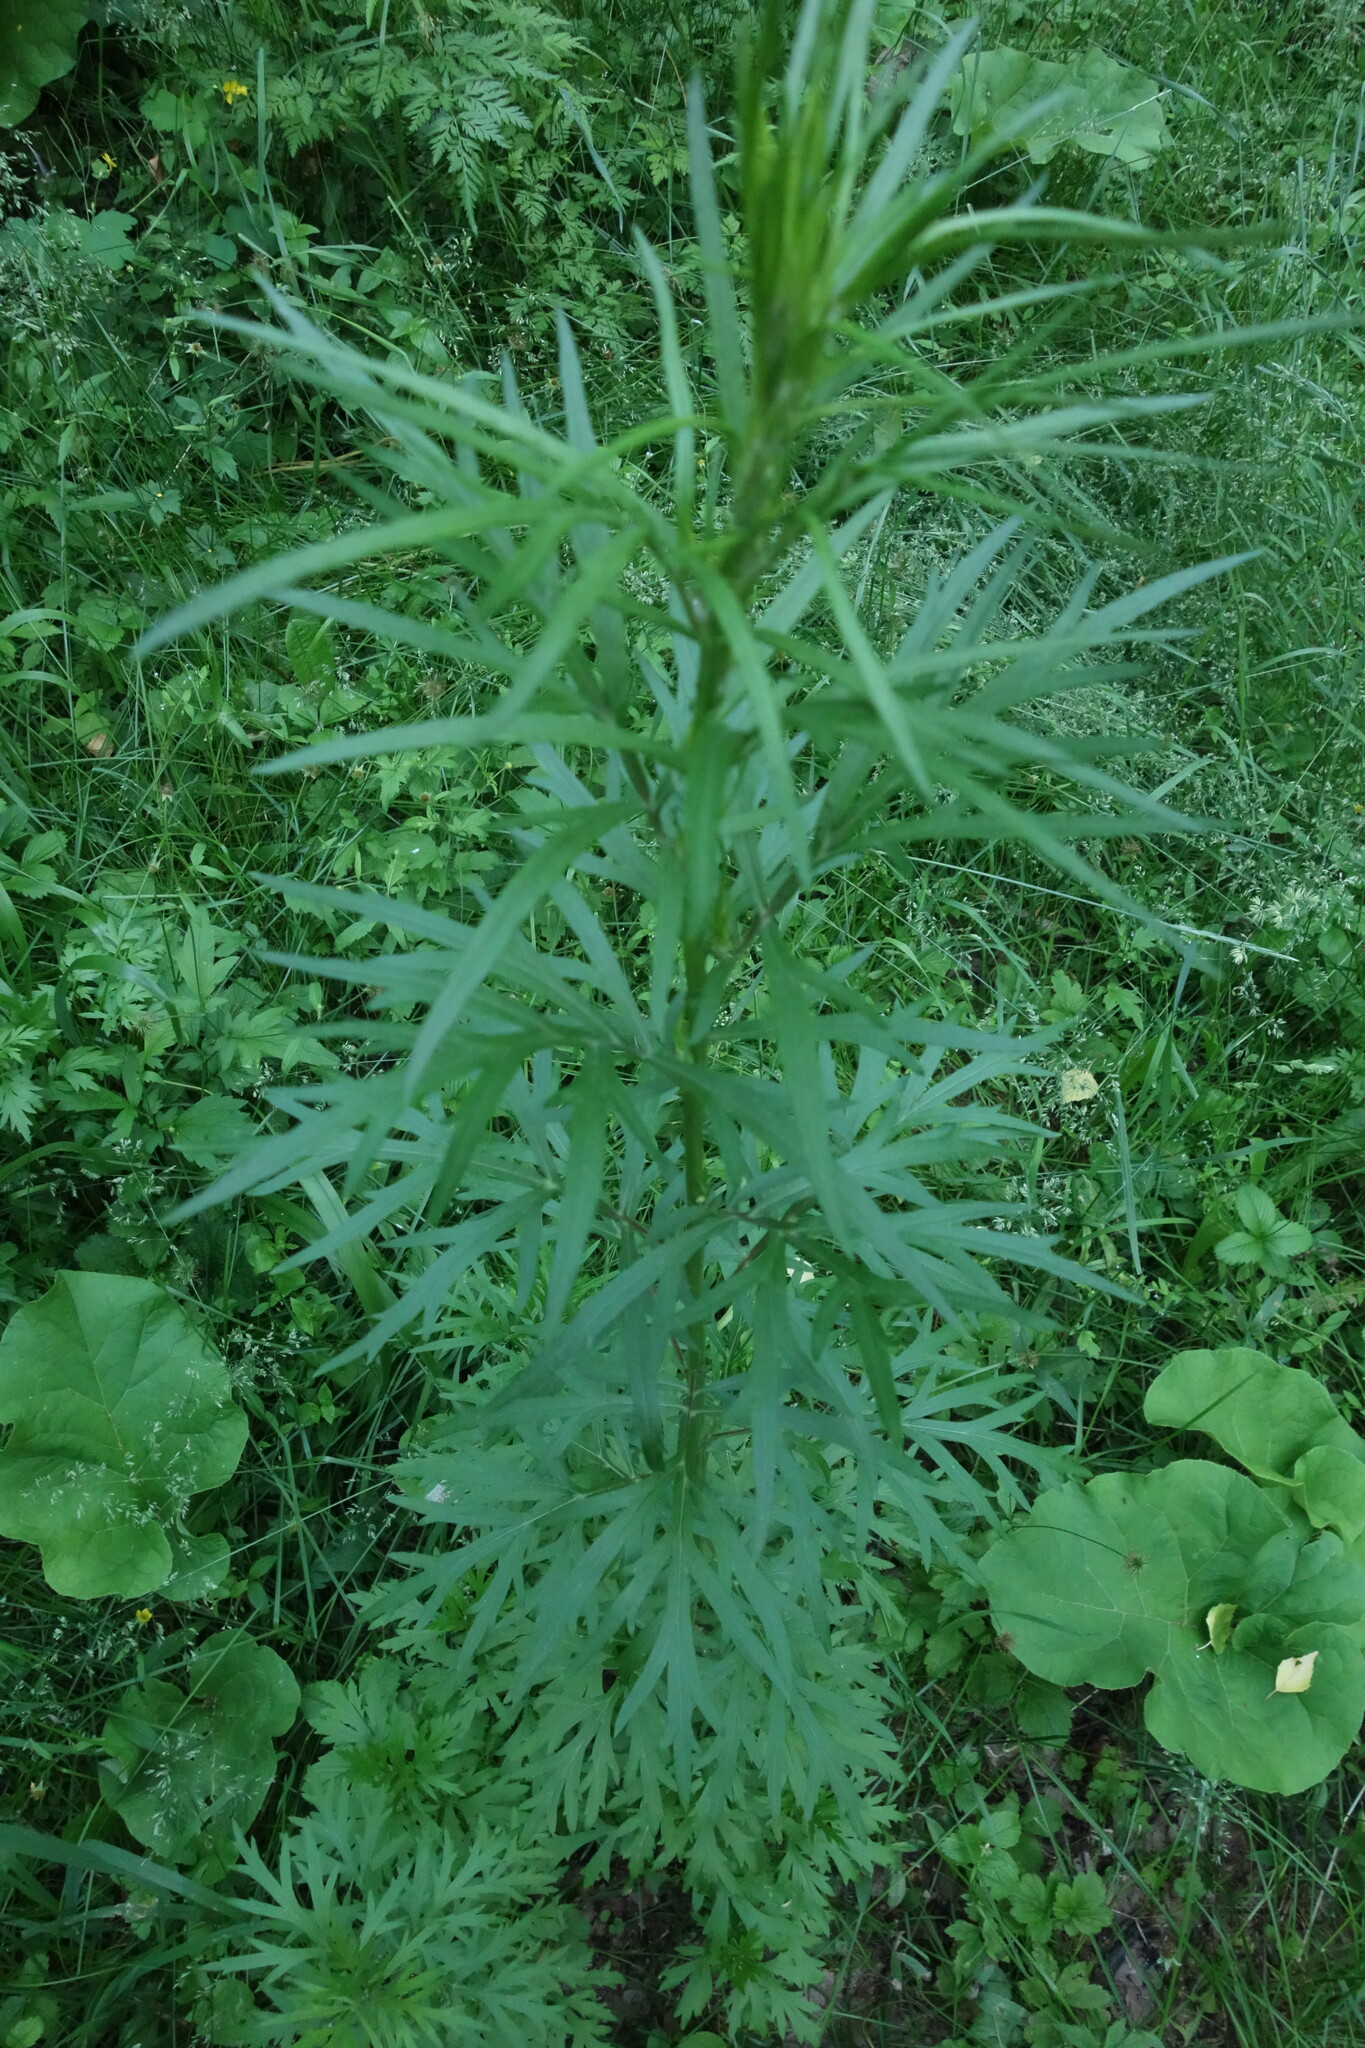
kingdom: Plantae
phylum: Tracheophyta
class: Magnoliopsida
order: Asterales
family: Asteraceae
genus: Artemisia
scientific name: Artemisia vulgaris
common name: Mugwort
